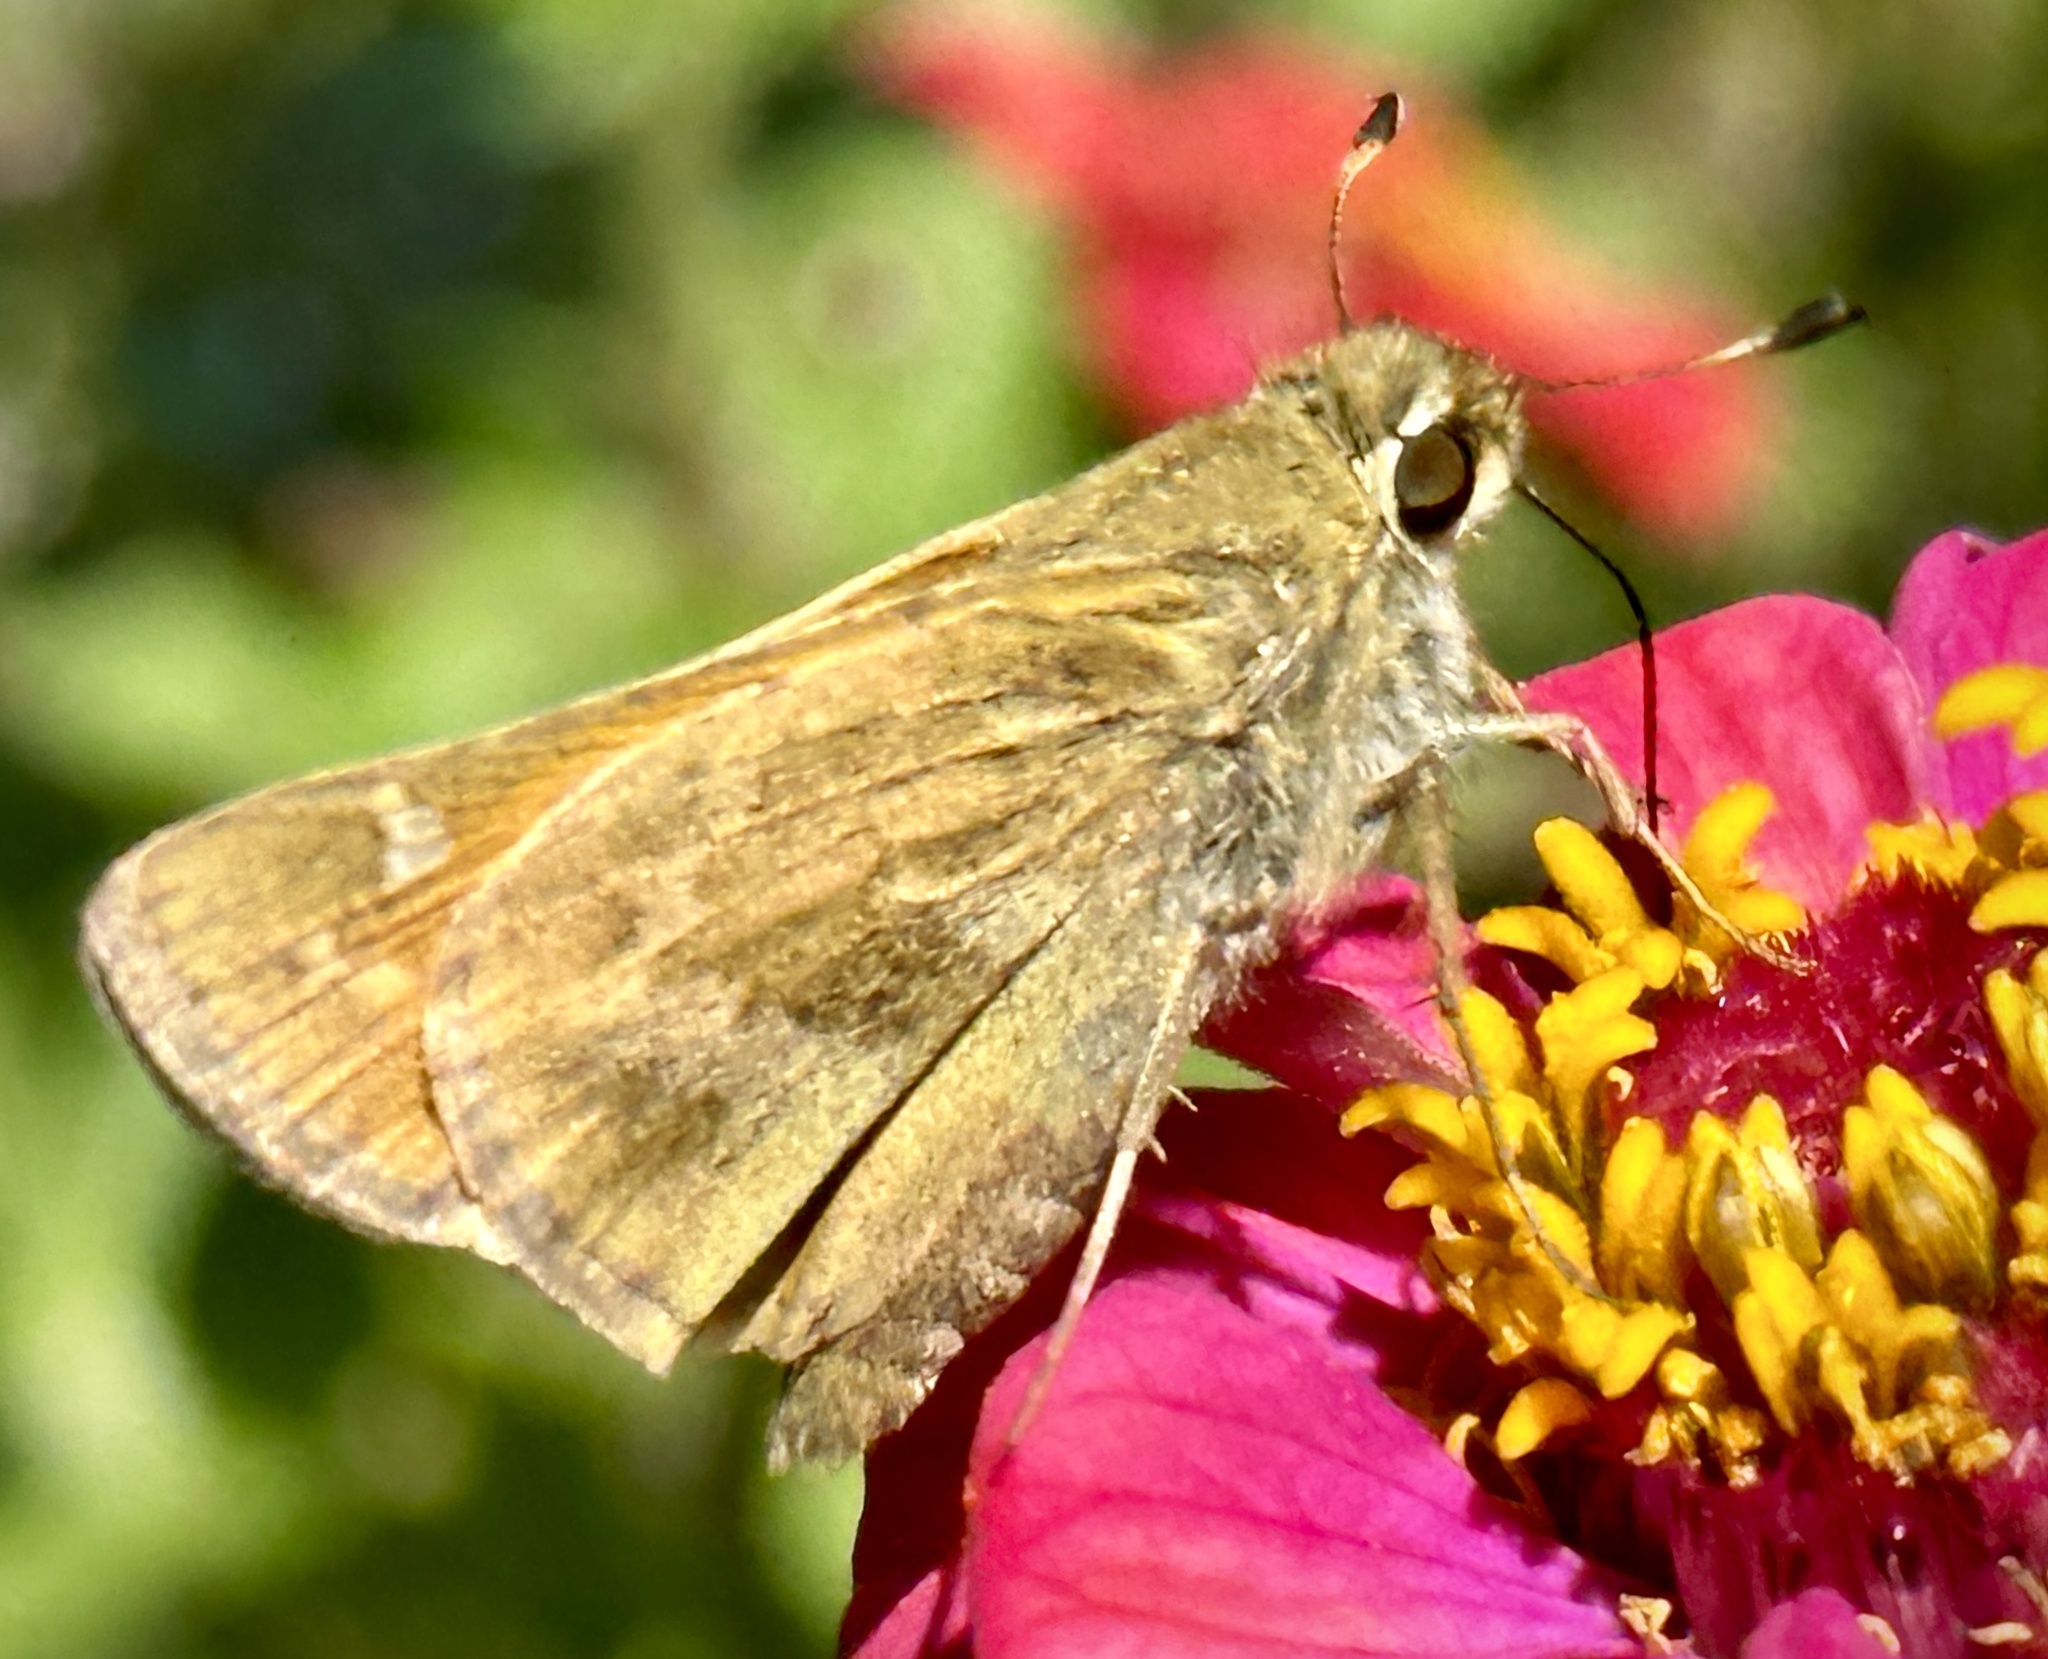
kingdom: Animalia
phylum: Arthropoda
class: Insecta
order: Lepidoptera
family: Hesperiidae
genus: Atalopedes
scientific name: Atalopedes
